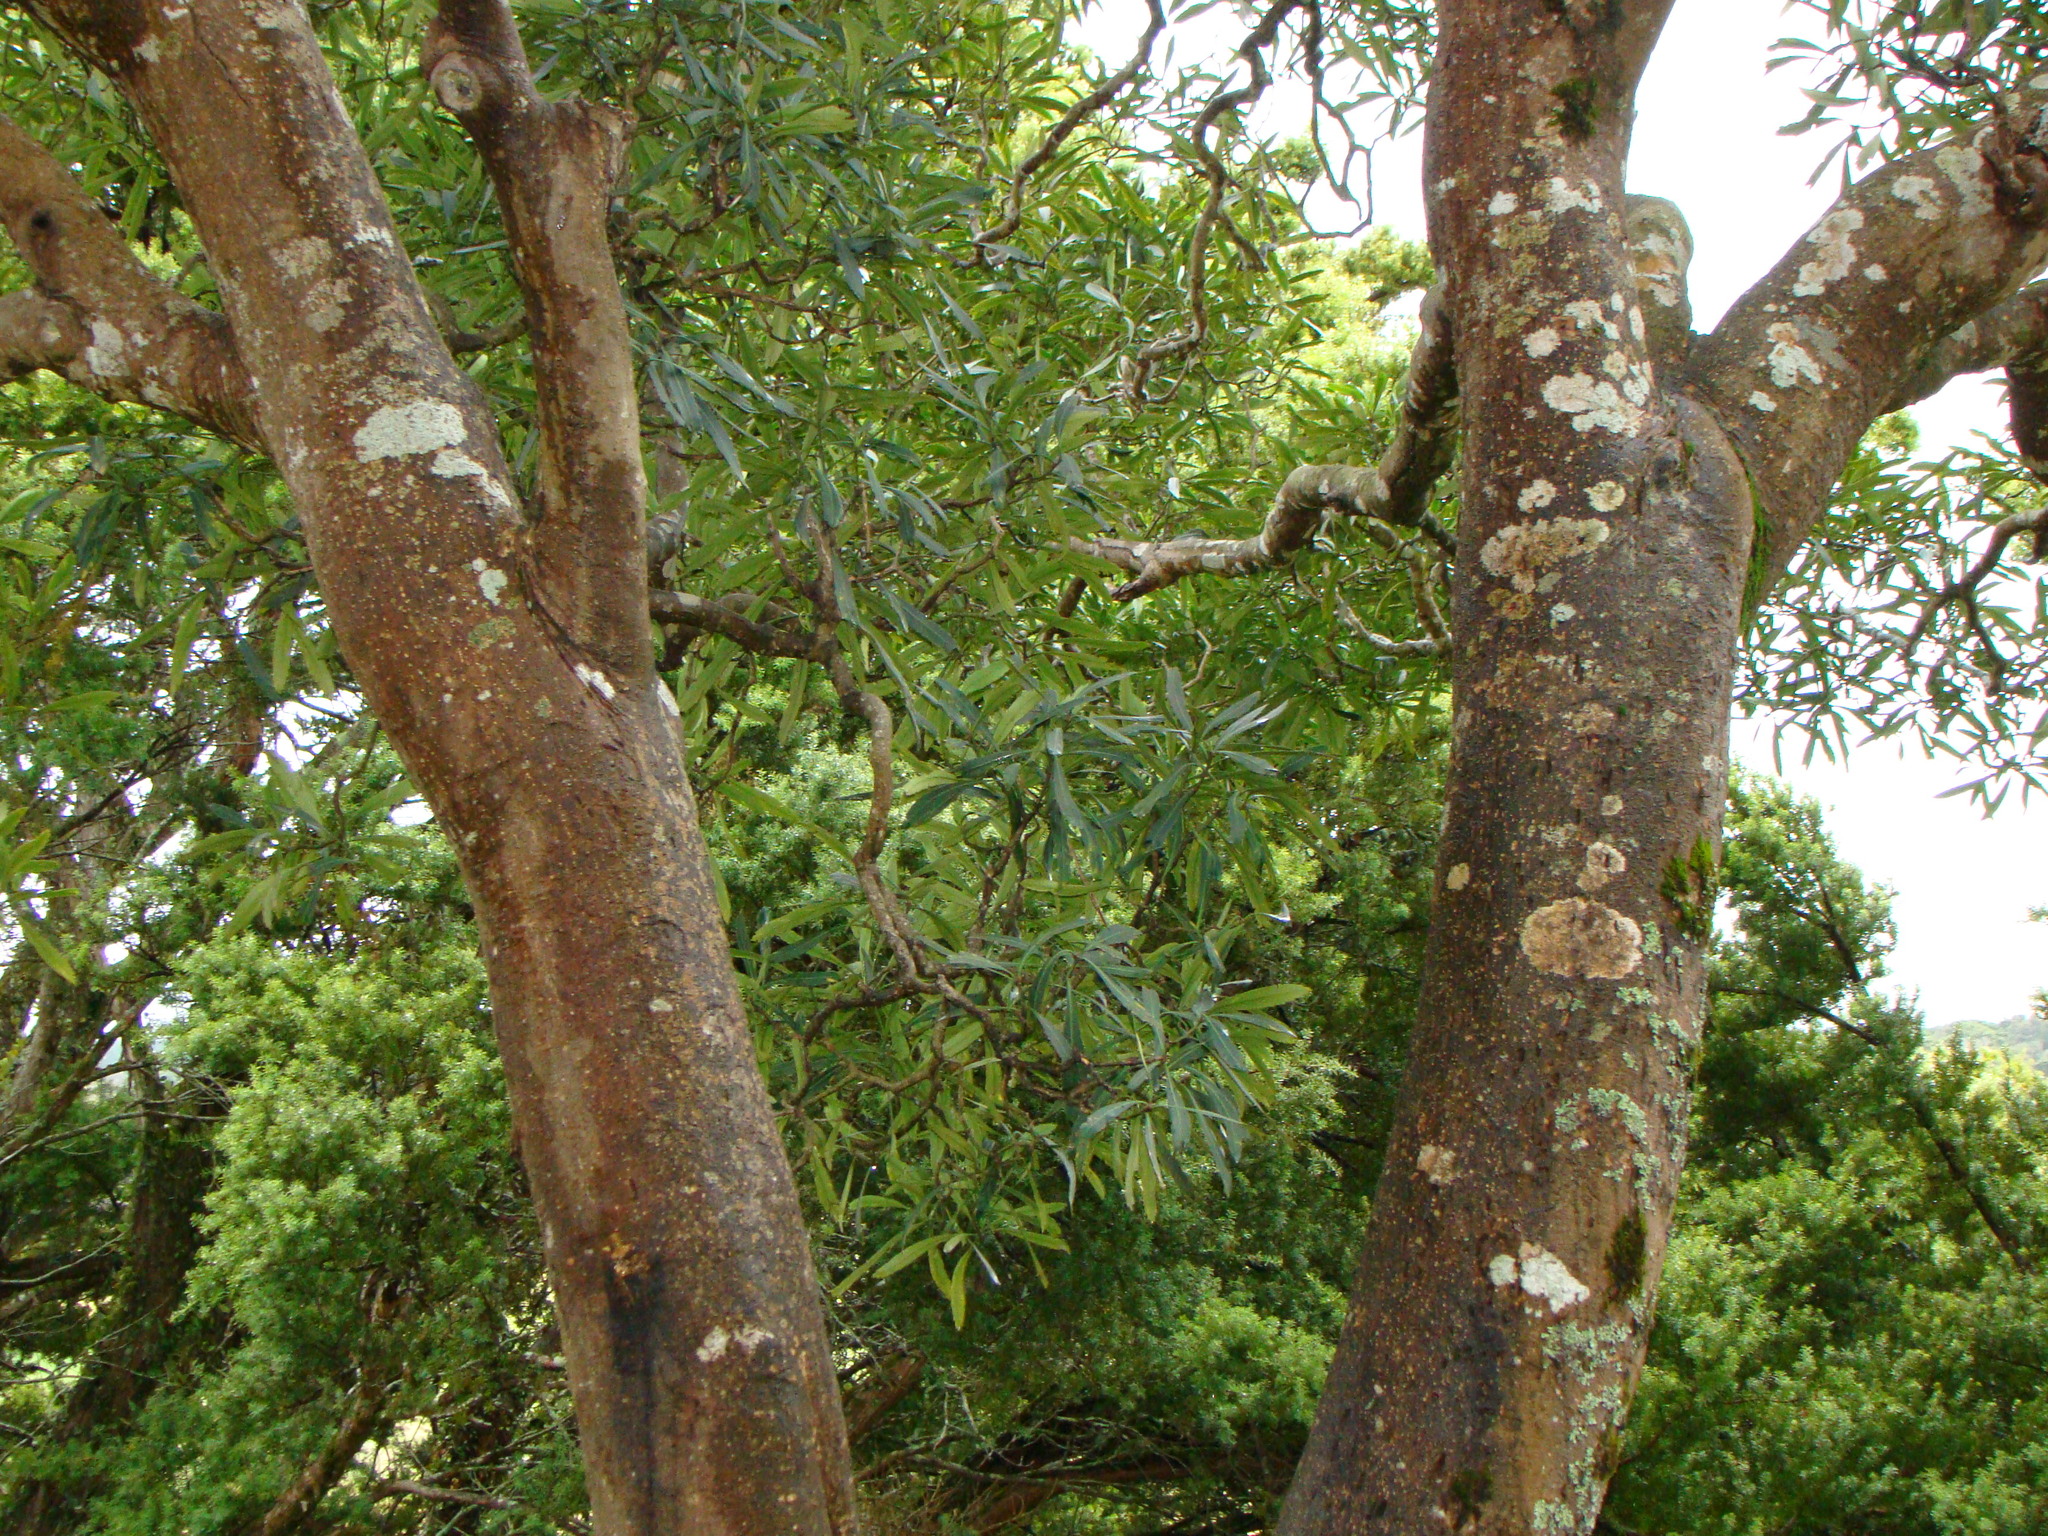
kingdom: Plantae
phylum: Tracheophyta
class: Magnoliopsida
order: Apiales
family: Araliaceae
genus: Pseudopanax
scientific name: Pseudopanax crassifolius
